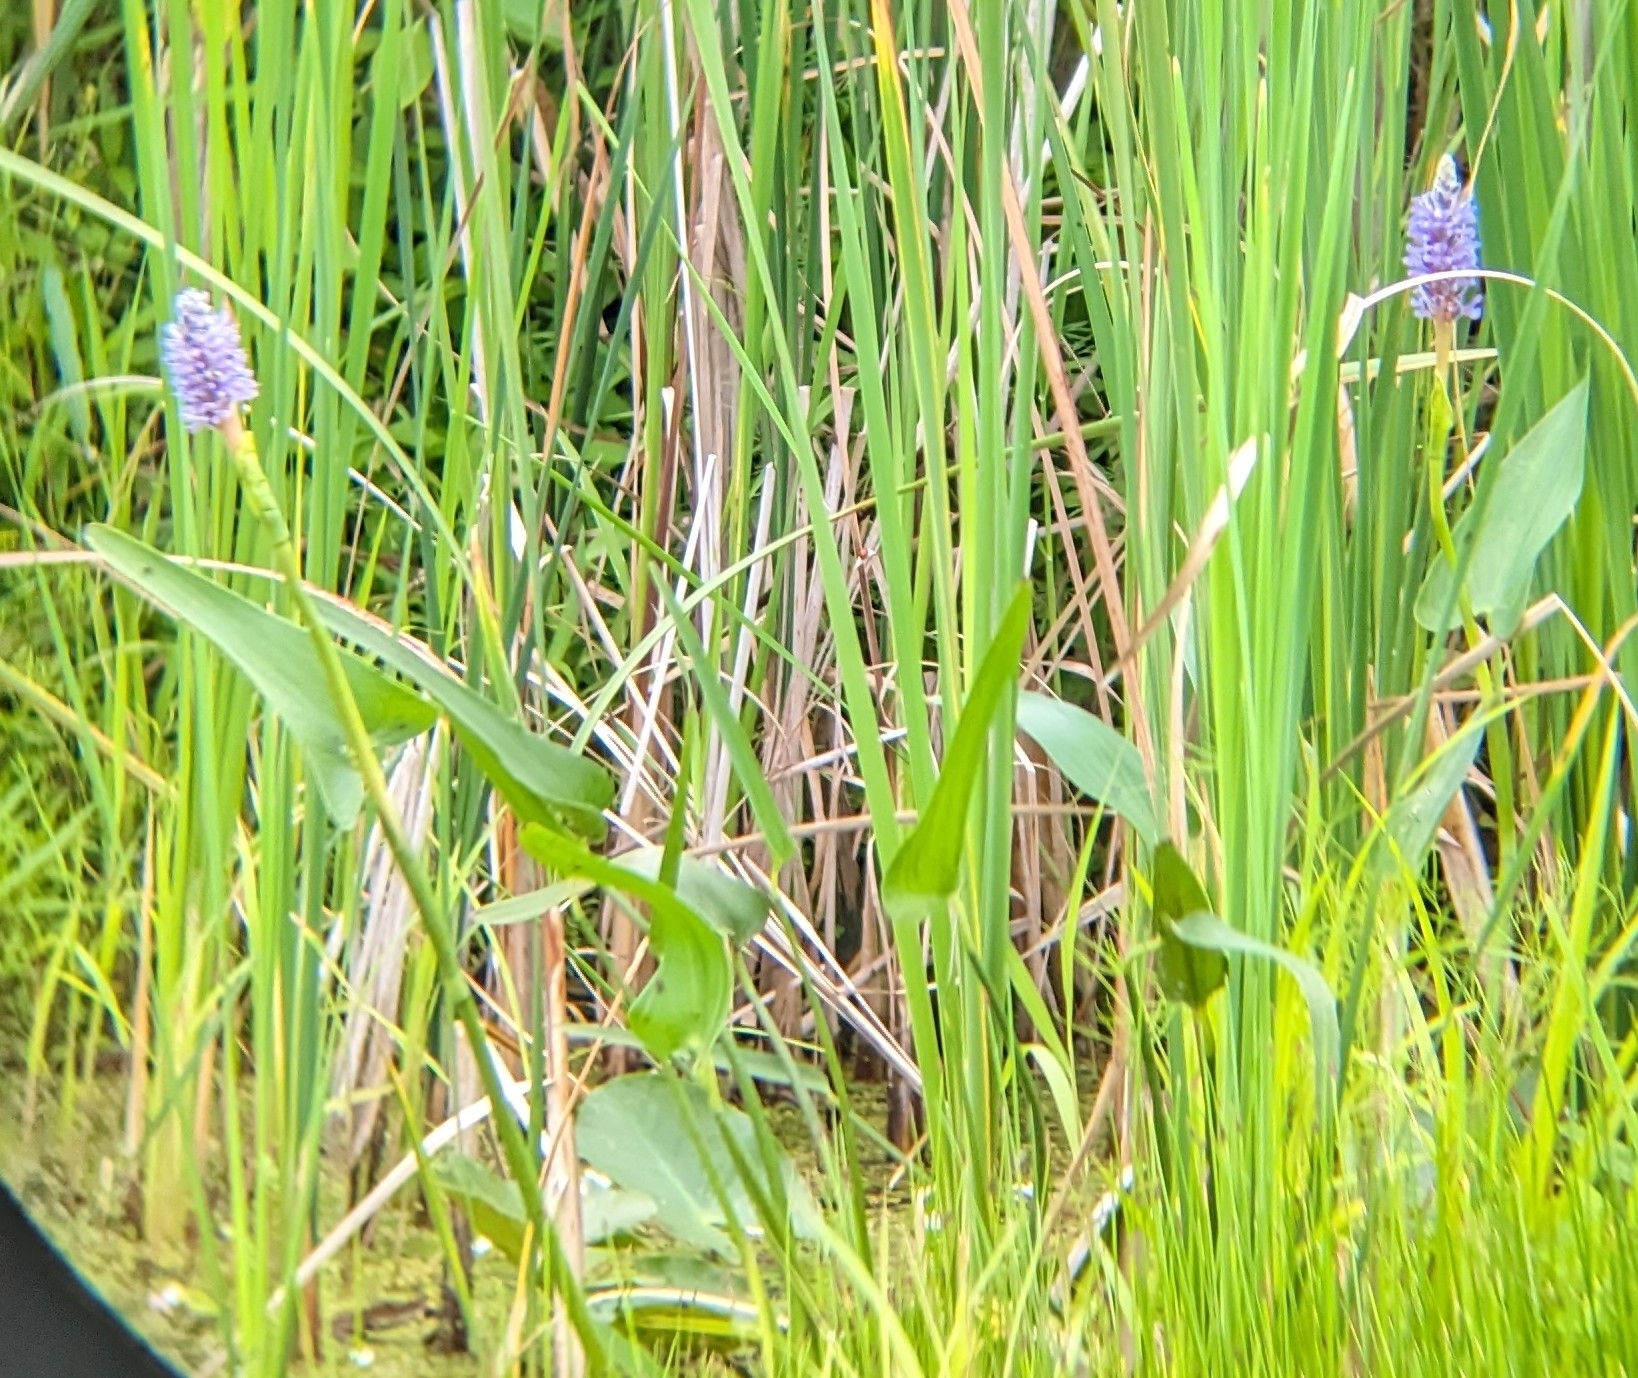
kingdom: Plantae
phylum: Tracheophyta
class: Liliopsida
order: Commelinales
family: Pontederiaceae
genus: Pontederia
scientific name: Pontederia cordata
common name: Pickerelweed
